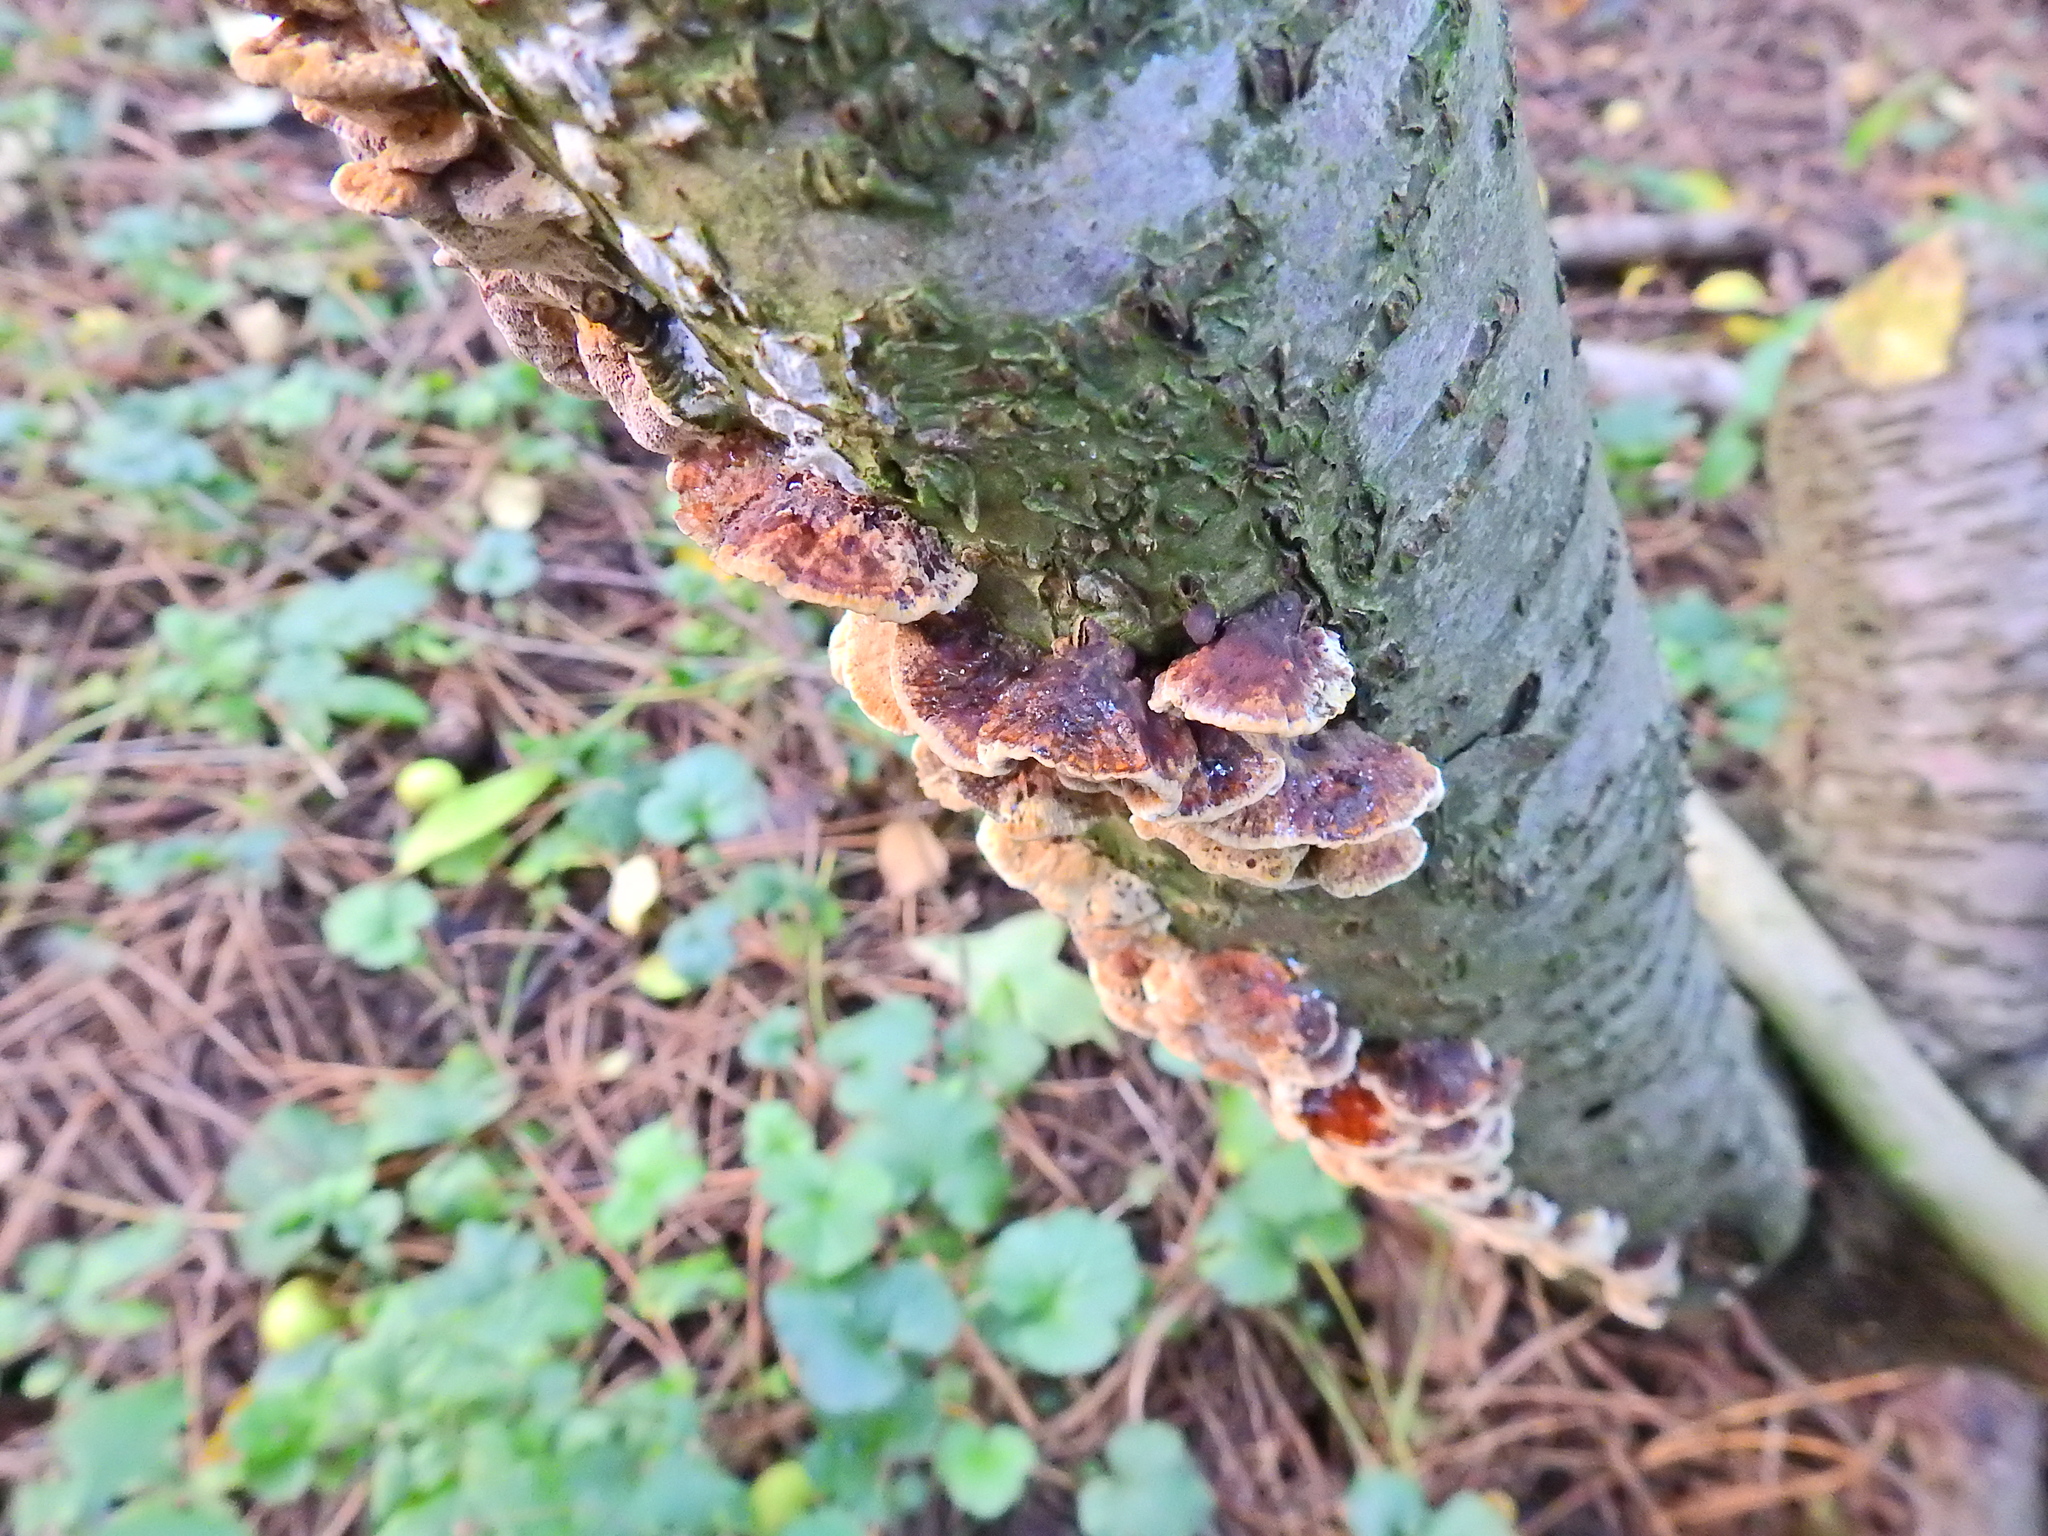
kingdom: Fungi
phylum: Basidiomycota
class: Agaricomycetes
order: Hymenochaetales
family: Hymenochaetaceae
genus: Xanthoporia
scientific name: Xanthoporia radiata
